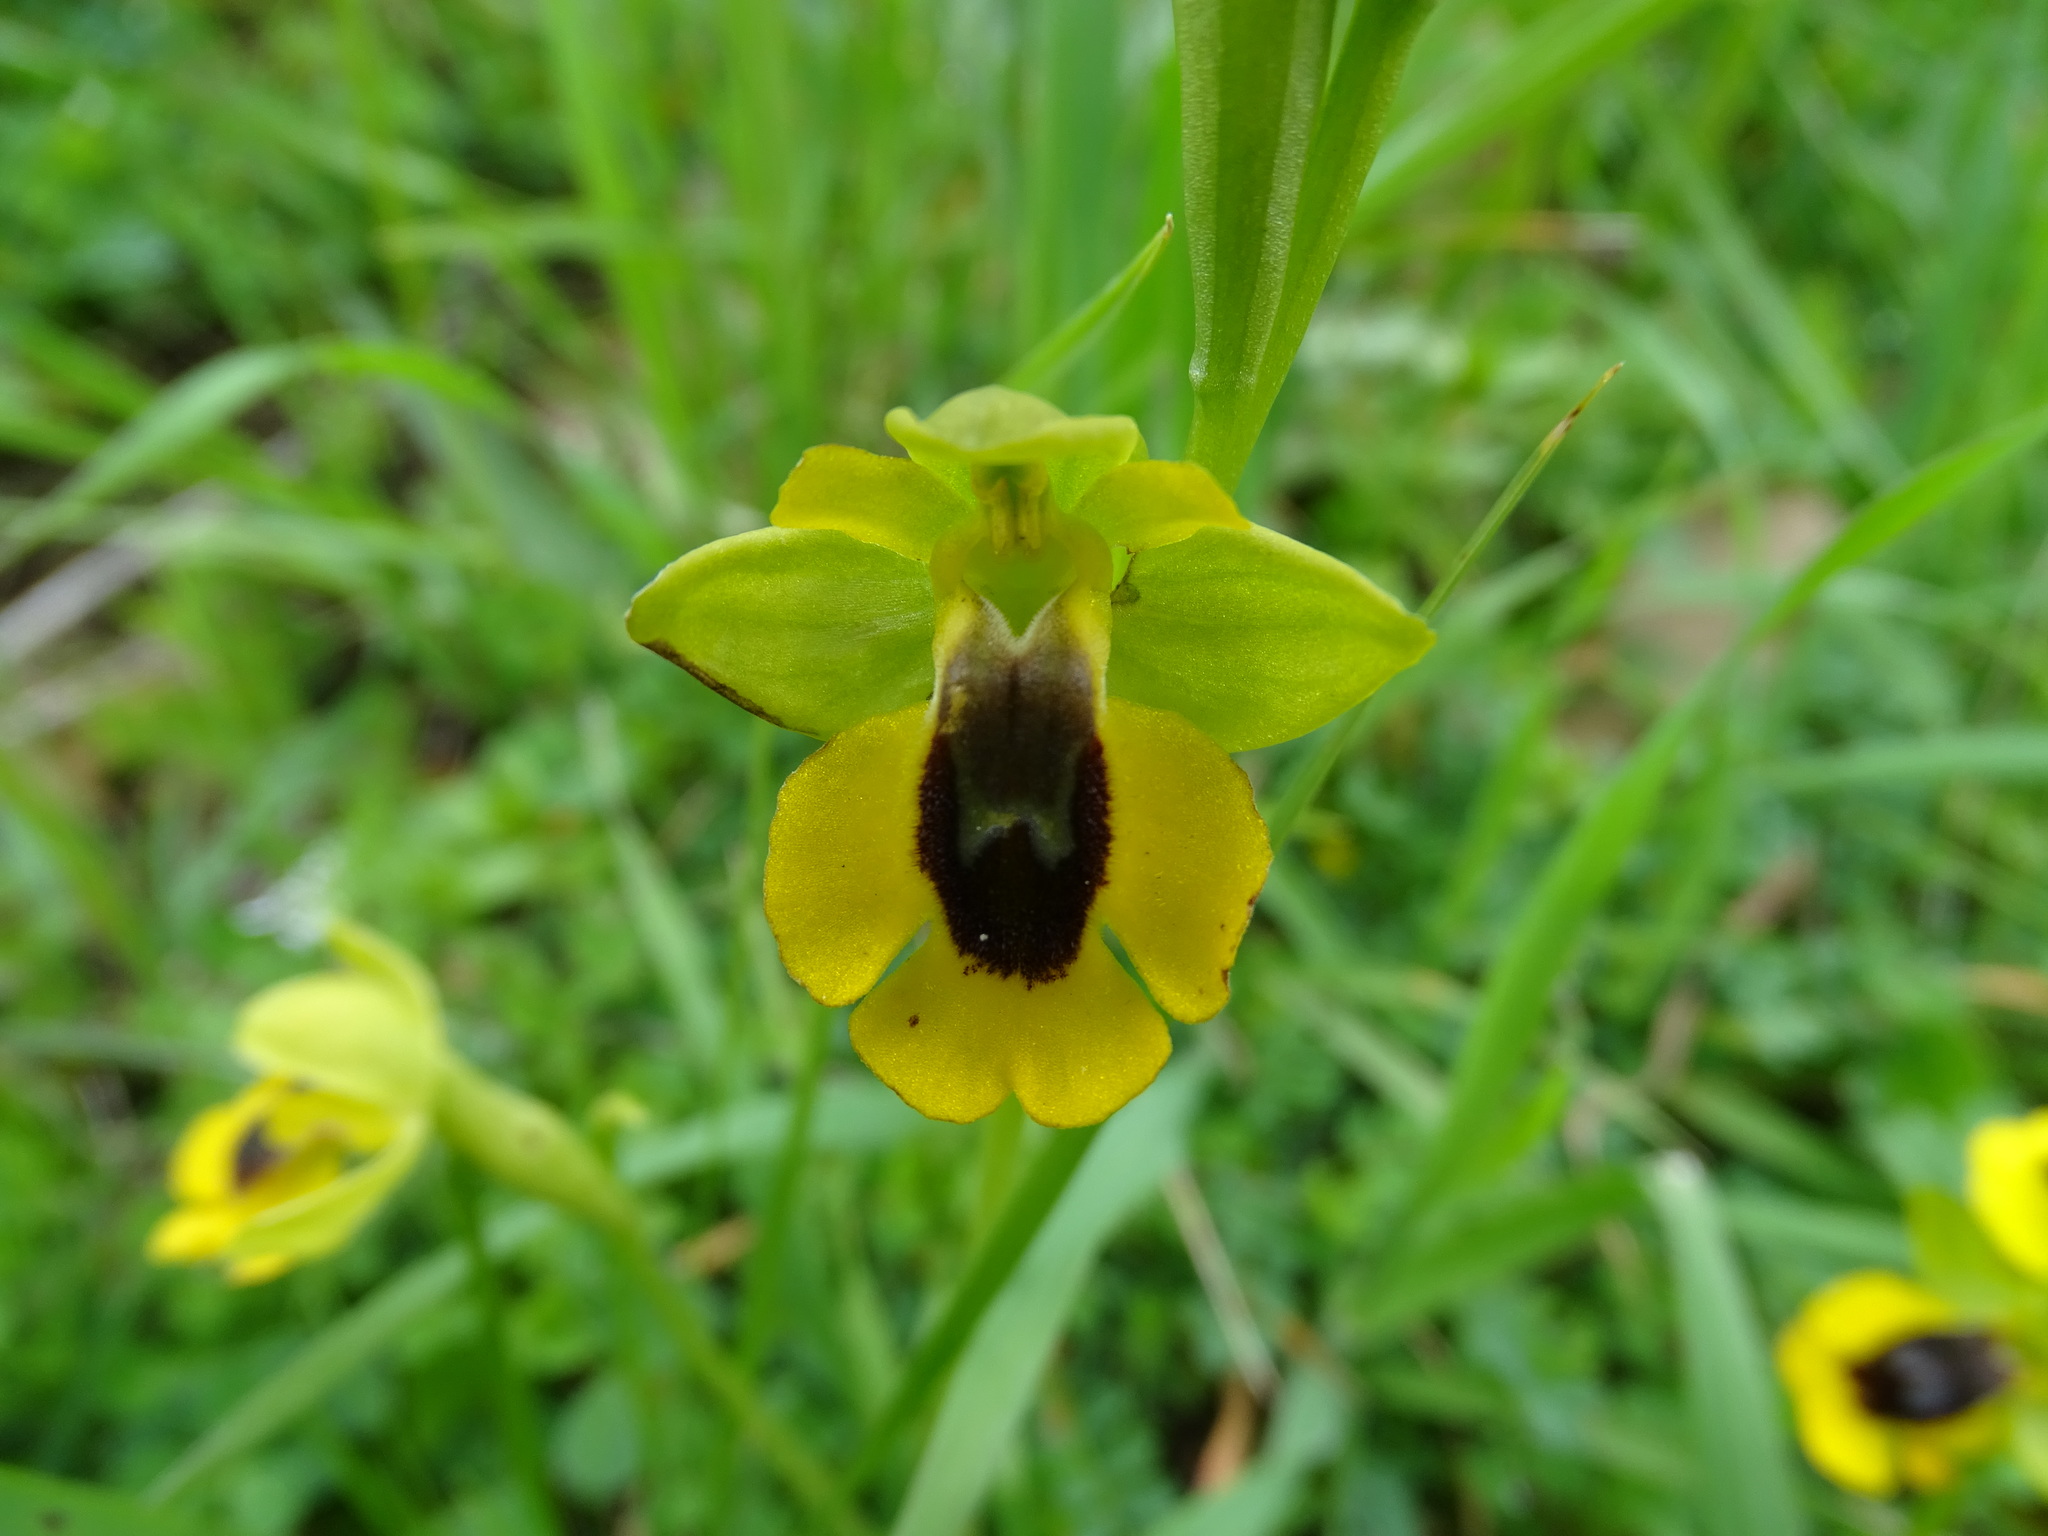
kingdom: Plantae
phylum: Tracheophyta
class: Liliopsida
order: Asparagales
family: Orchidaceae
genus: Ophrys
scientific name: Ophrys lutea
